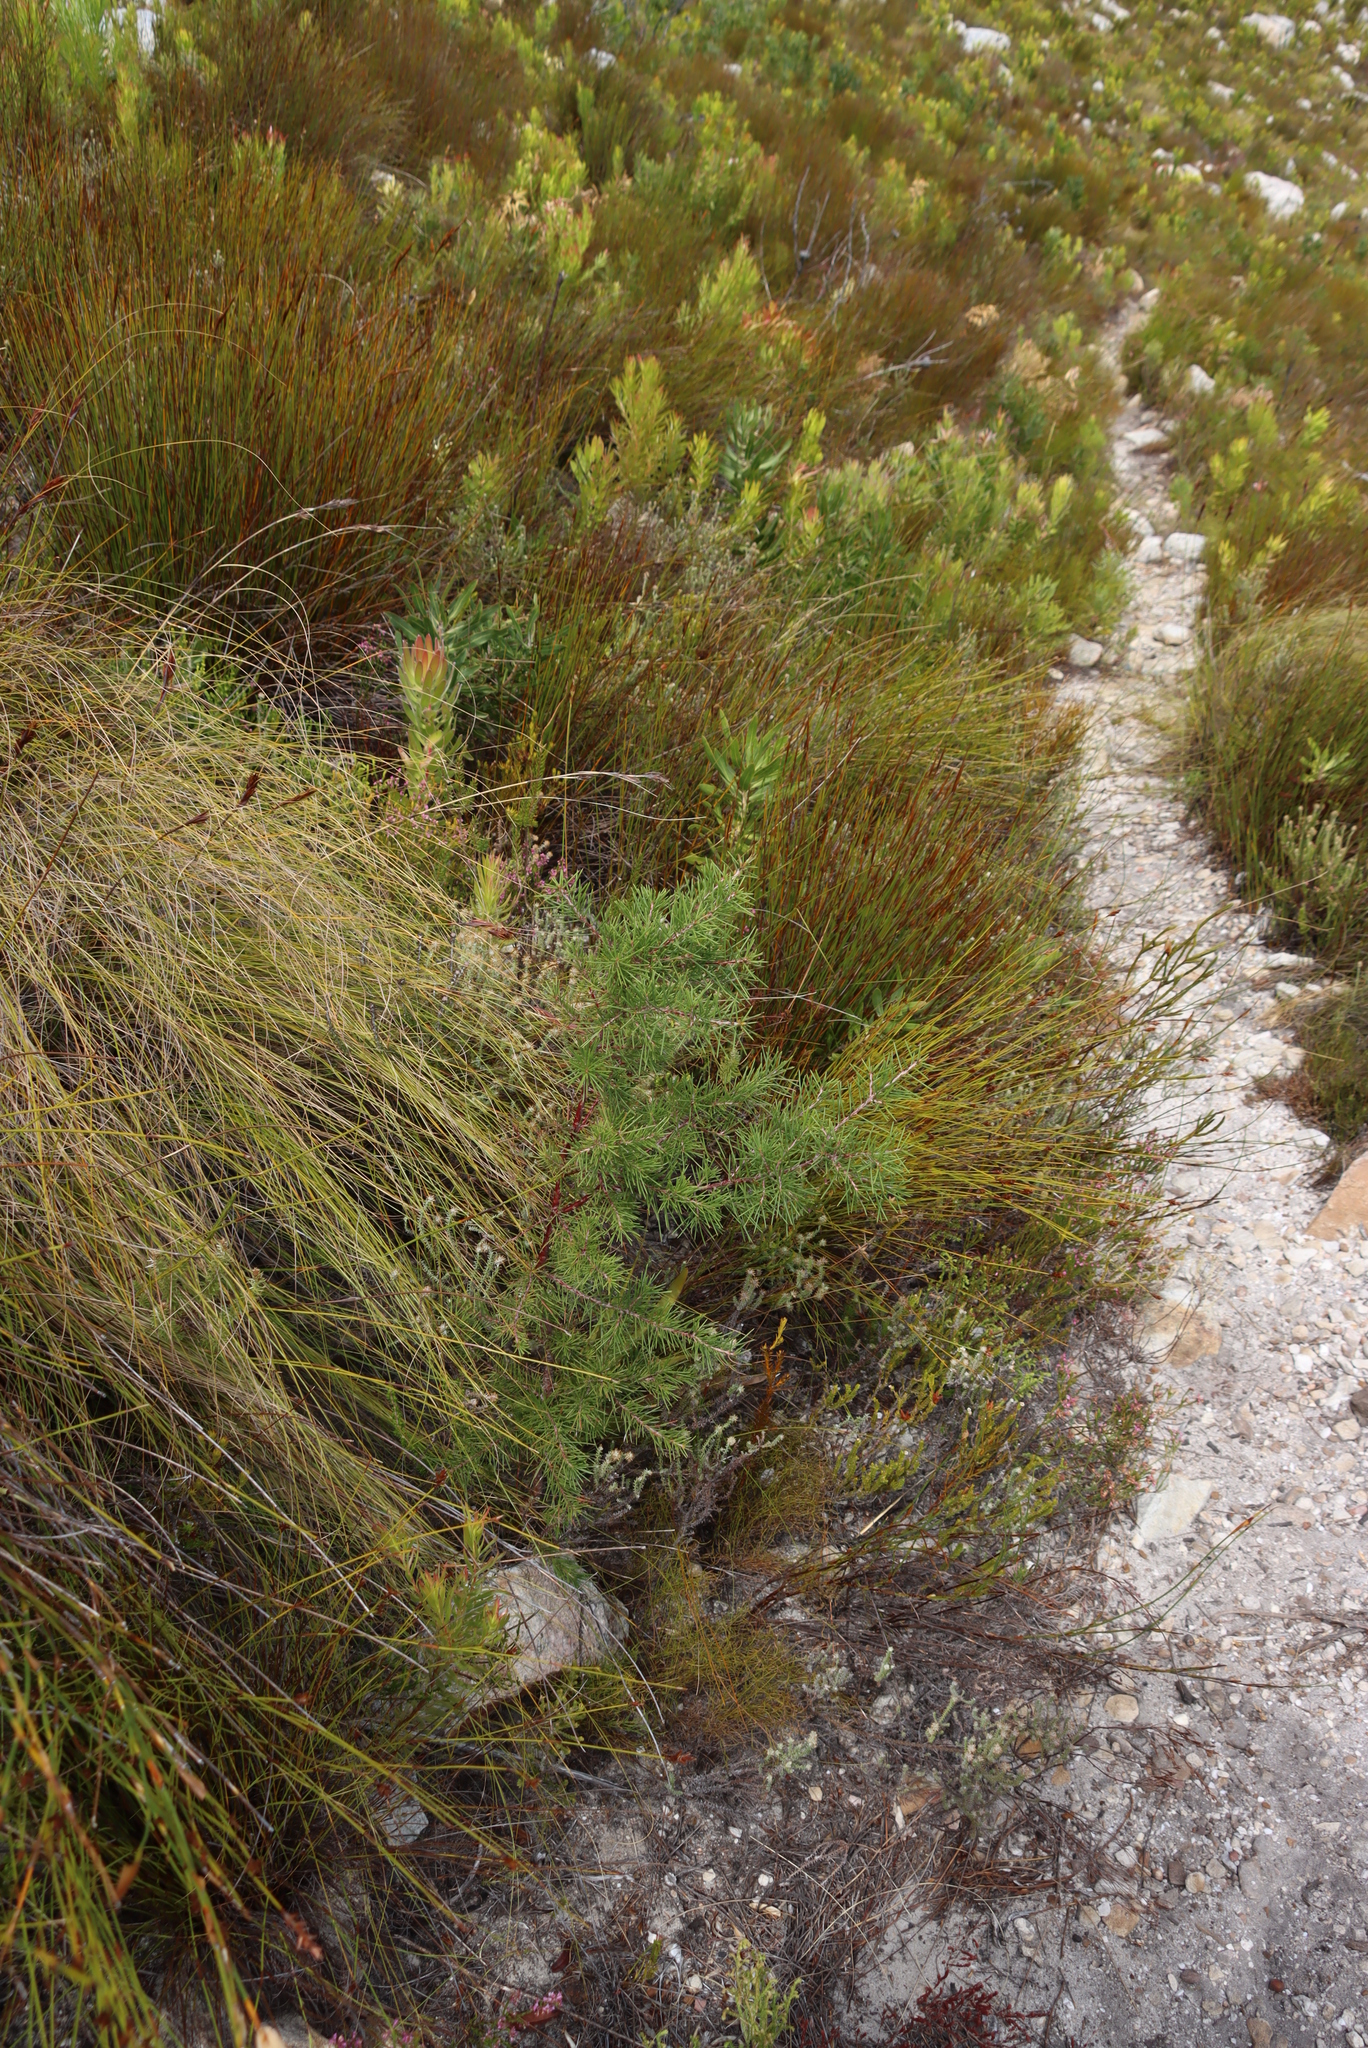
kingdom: Plantae
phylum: Tracheophyta
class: Magnoliopsida
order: Proteales
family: Proteaceae
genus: Hakea
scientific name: Hakea sericea
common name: Needle bush
